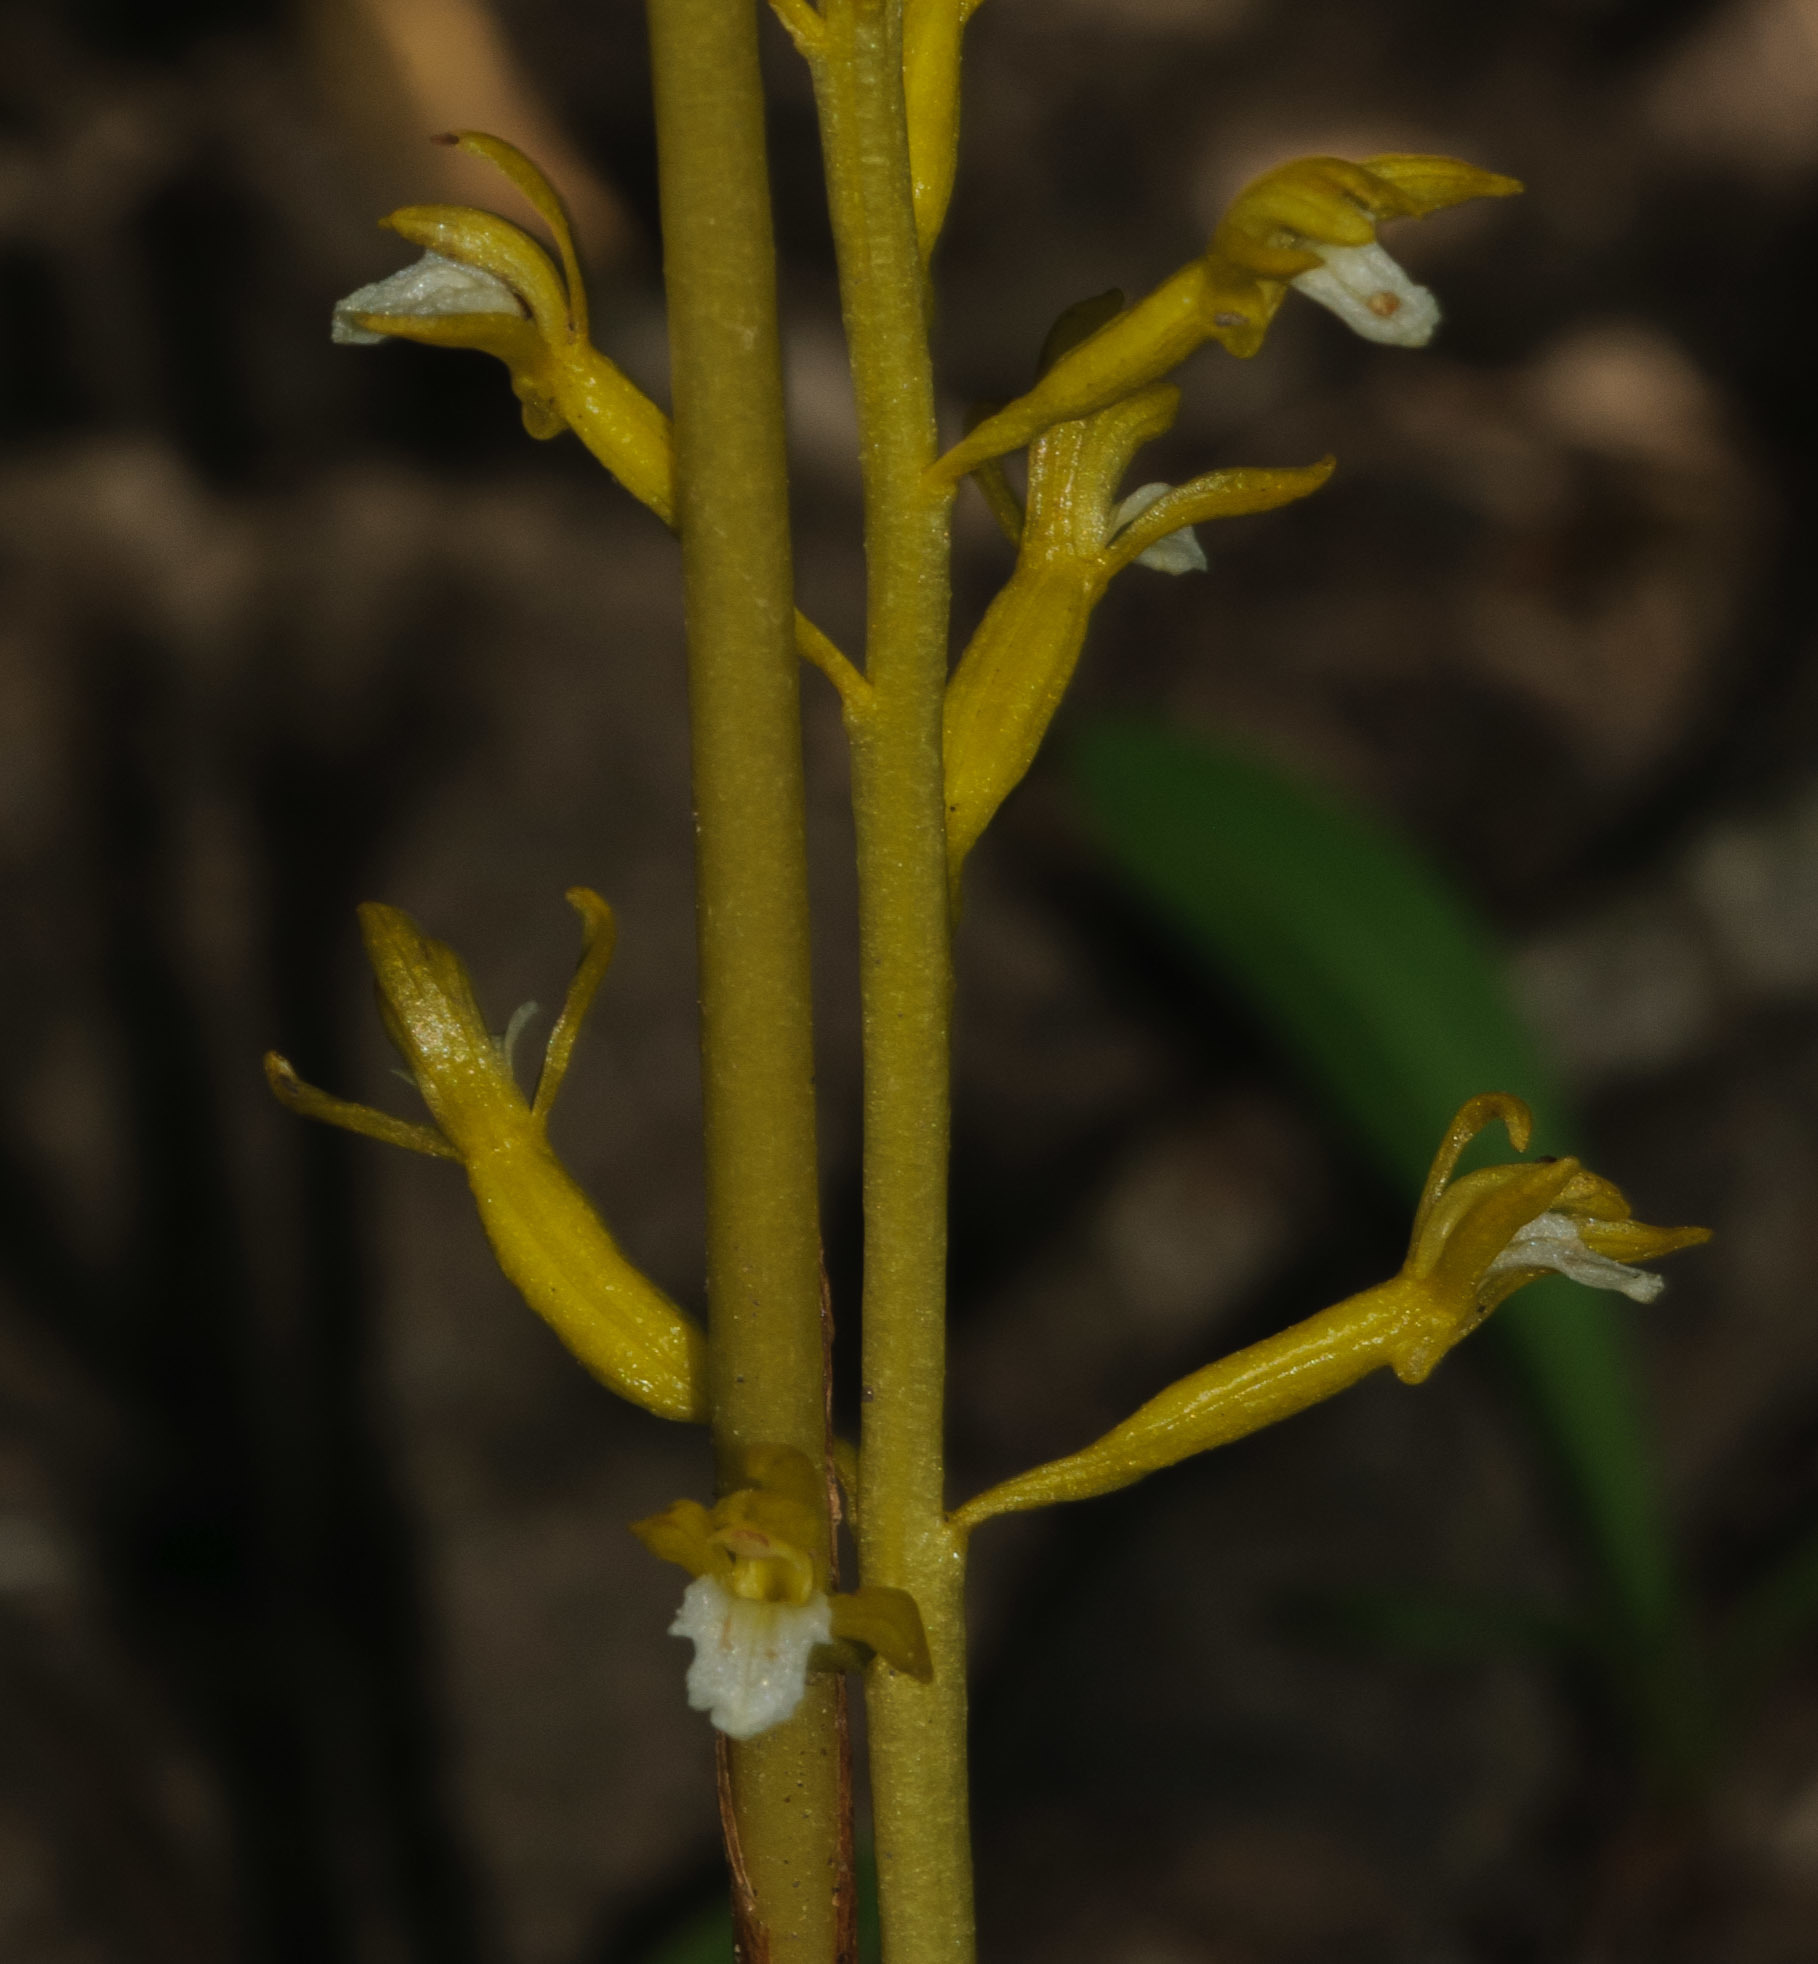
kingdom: Plantae
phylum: Tracheophyta
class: Liliopsida
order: Asparagales
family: Orchidaceae
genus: Corallorhiza
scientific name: Corallorhiza maculata
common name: Spotted coralroot
